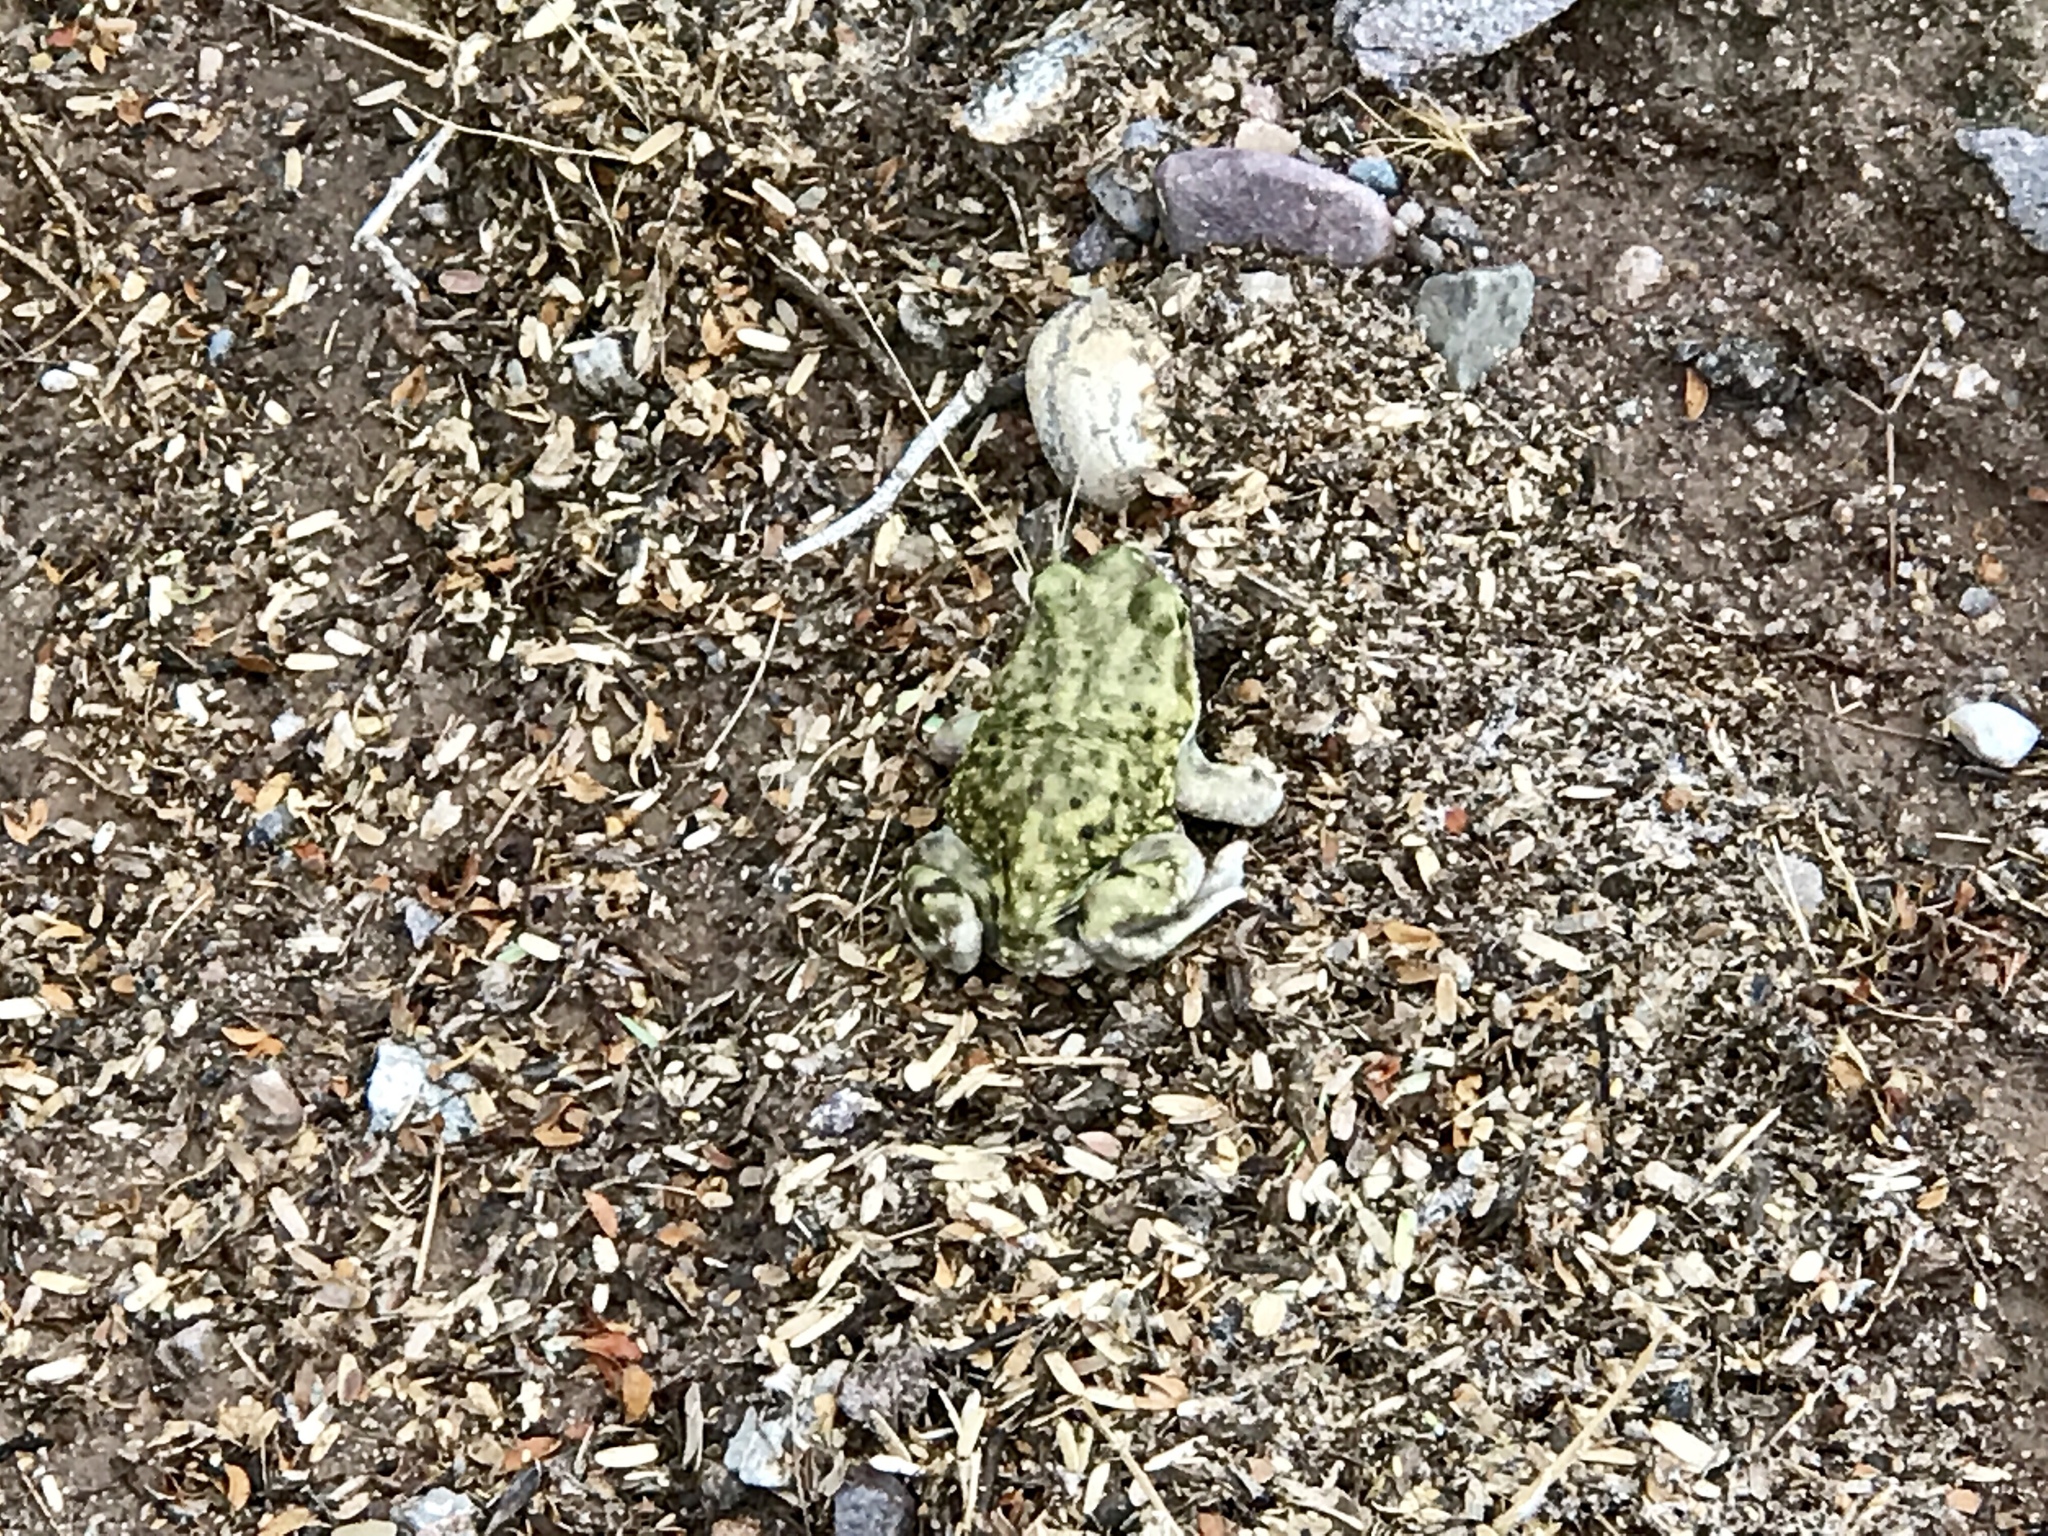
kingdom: Animalia
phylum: Chordata
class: Amphibia
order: Anura
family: Scaphiopodidae
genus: Scaphiopus
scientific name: Scaphiopus couchii
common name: Couch's spadefoot toad
